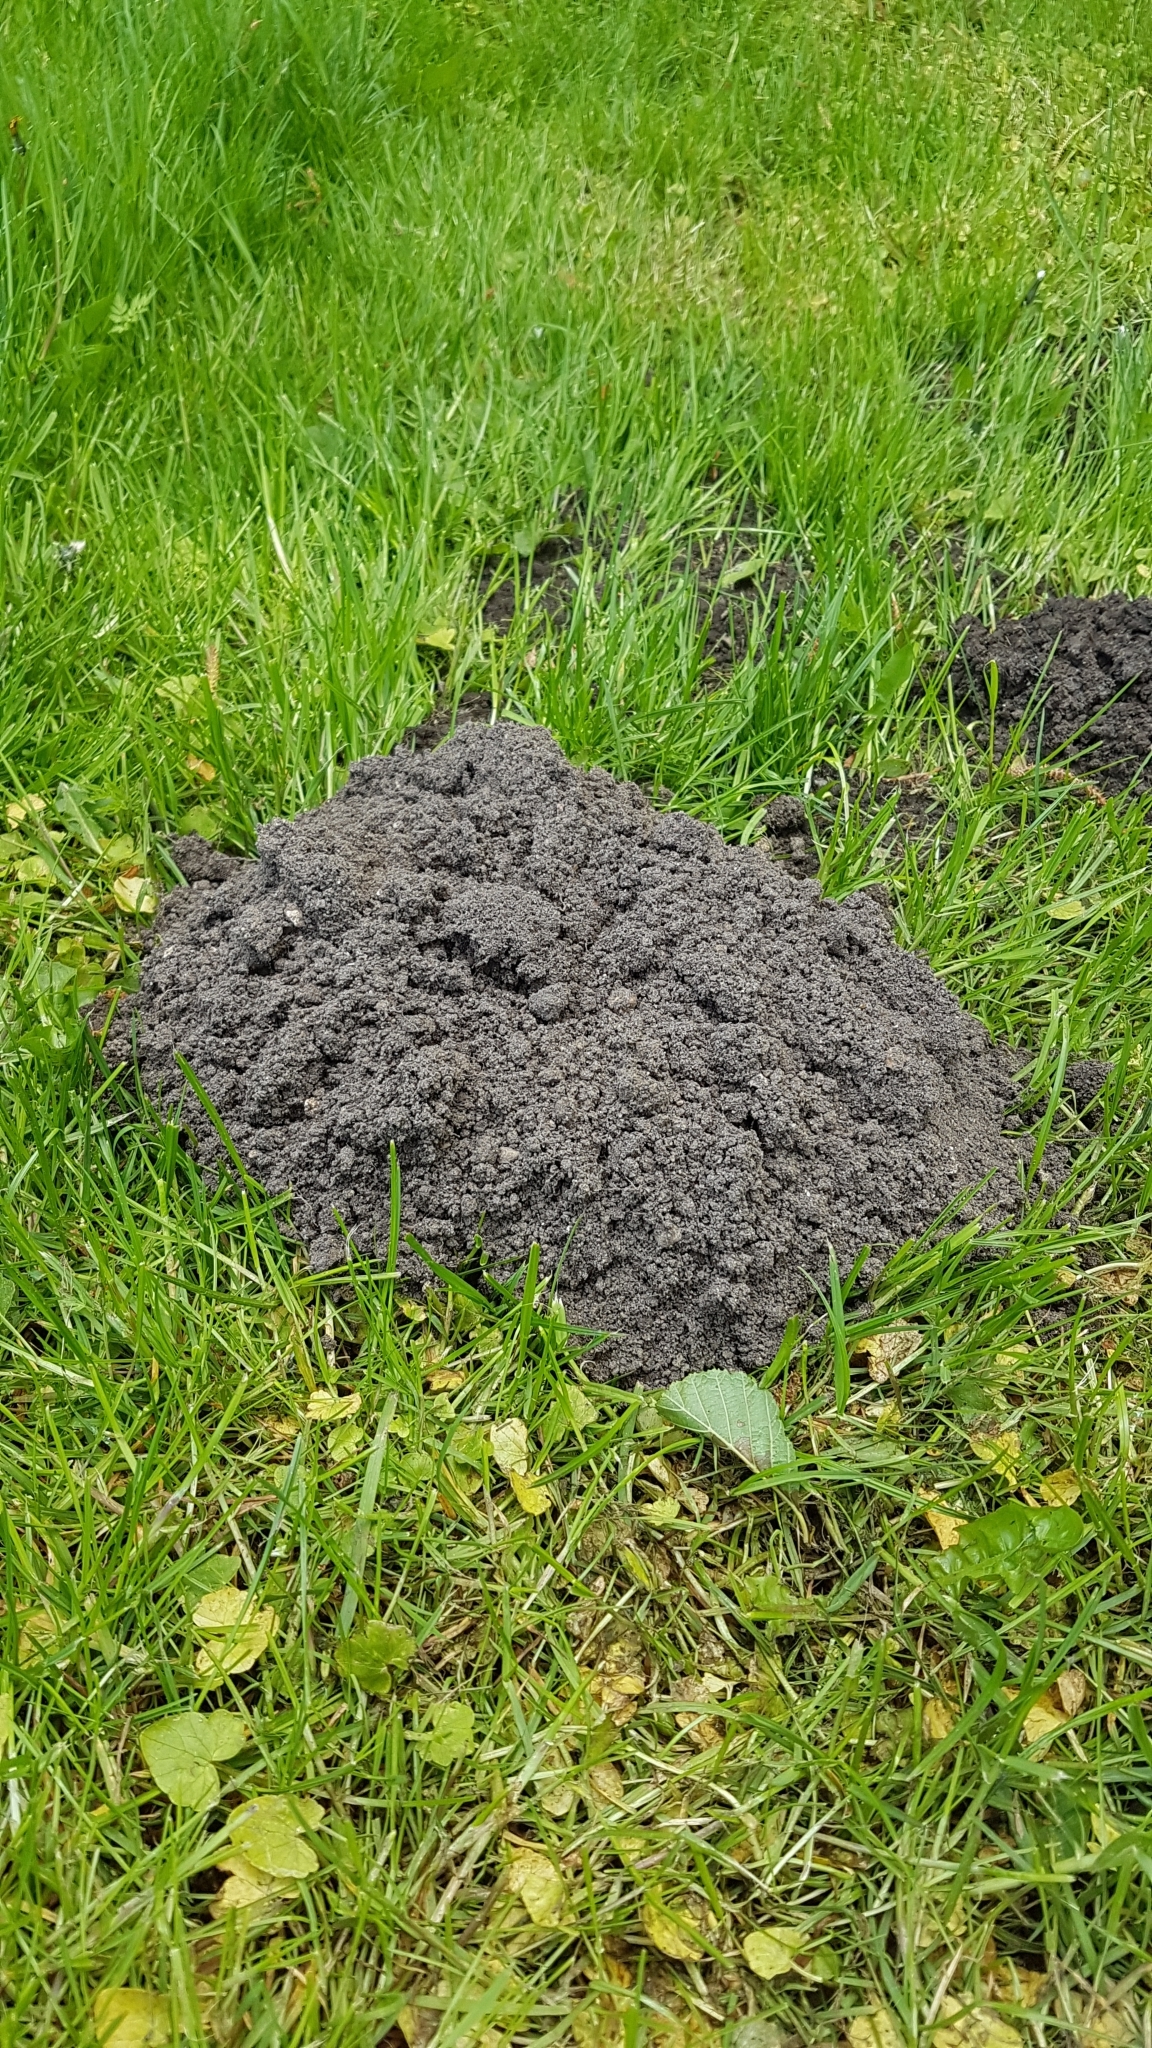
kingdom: Animalia
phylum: Chordata
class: Mammalia
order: Soricomorpha
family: Talpidae
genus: Talpa
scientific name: Talpa europaea
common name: European mole
